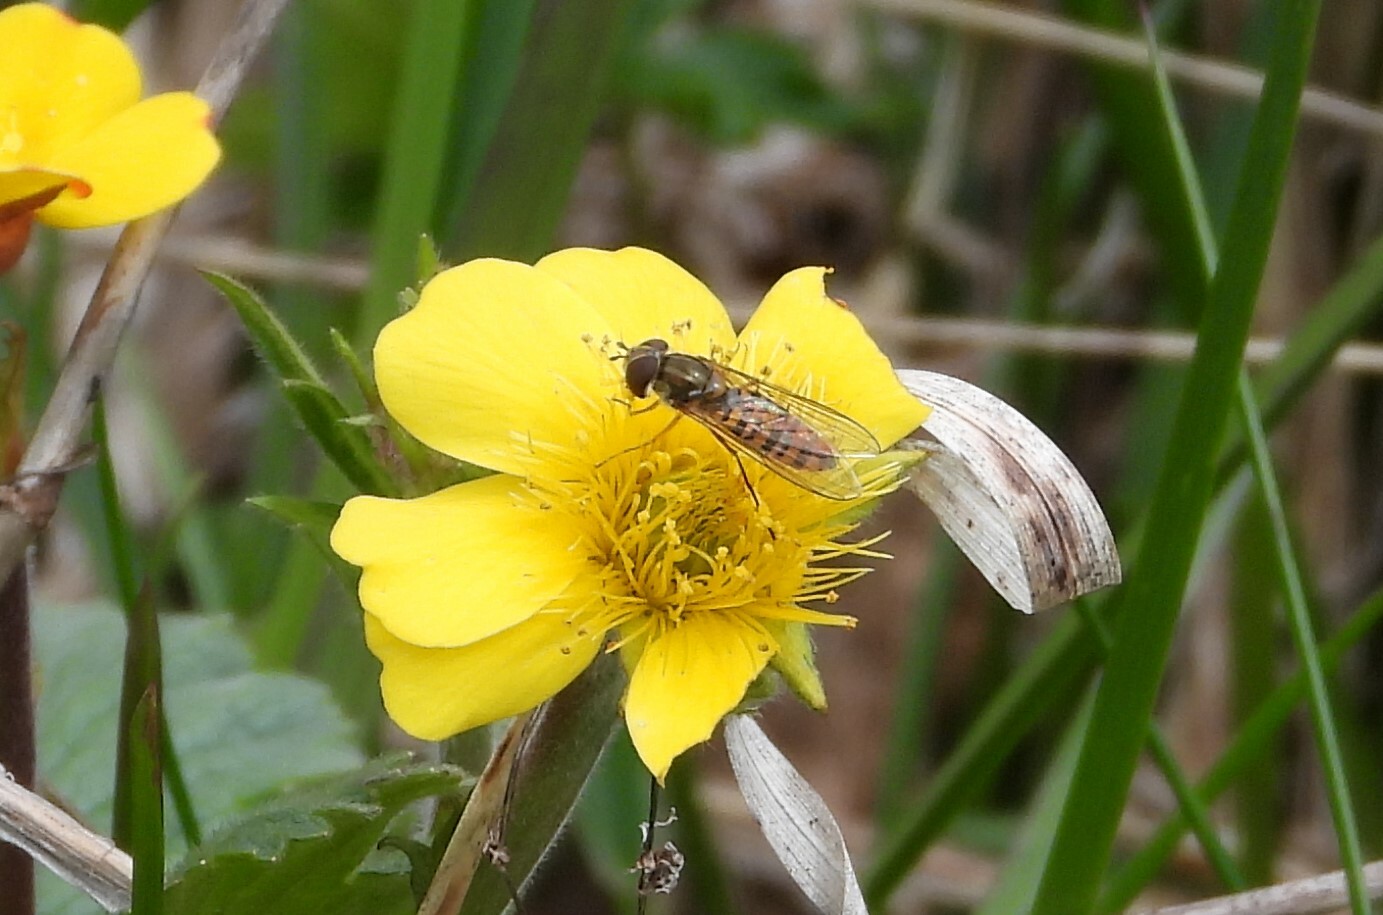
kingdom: Animalia
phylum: Arthropoda
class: Insecta
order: Diptera
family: Syrphidae
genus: Episyrphus
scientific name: Episyrphus balteatus
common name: Marmalade hoverfly
